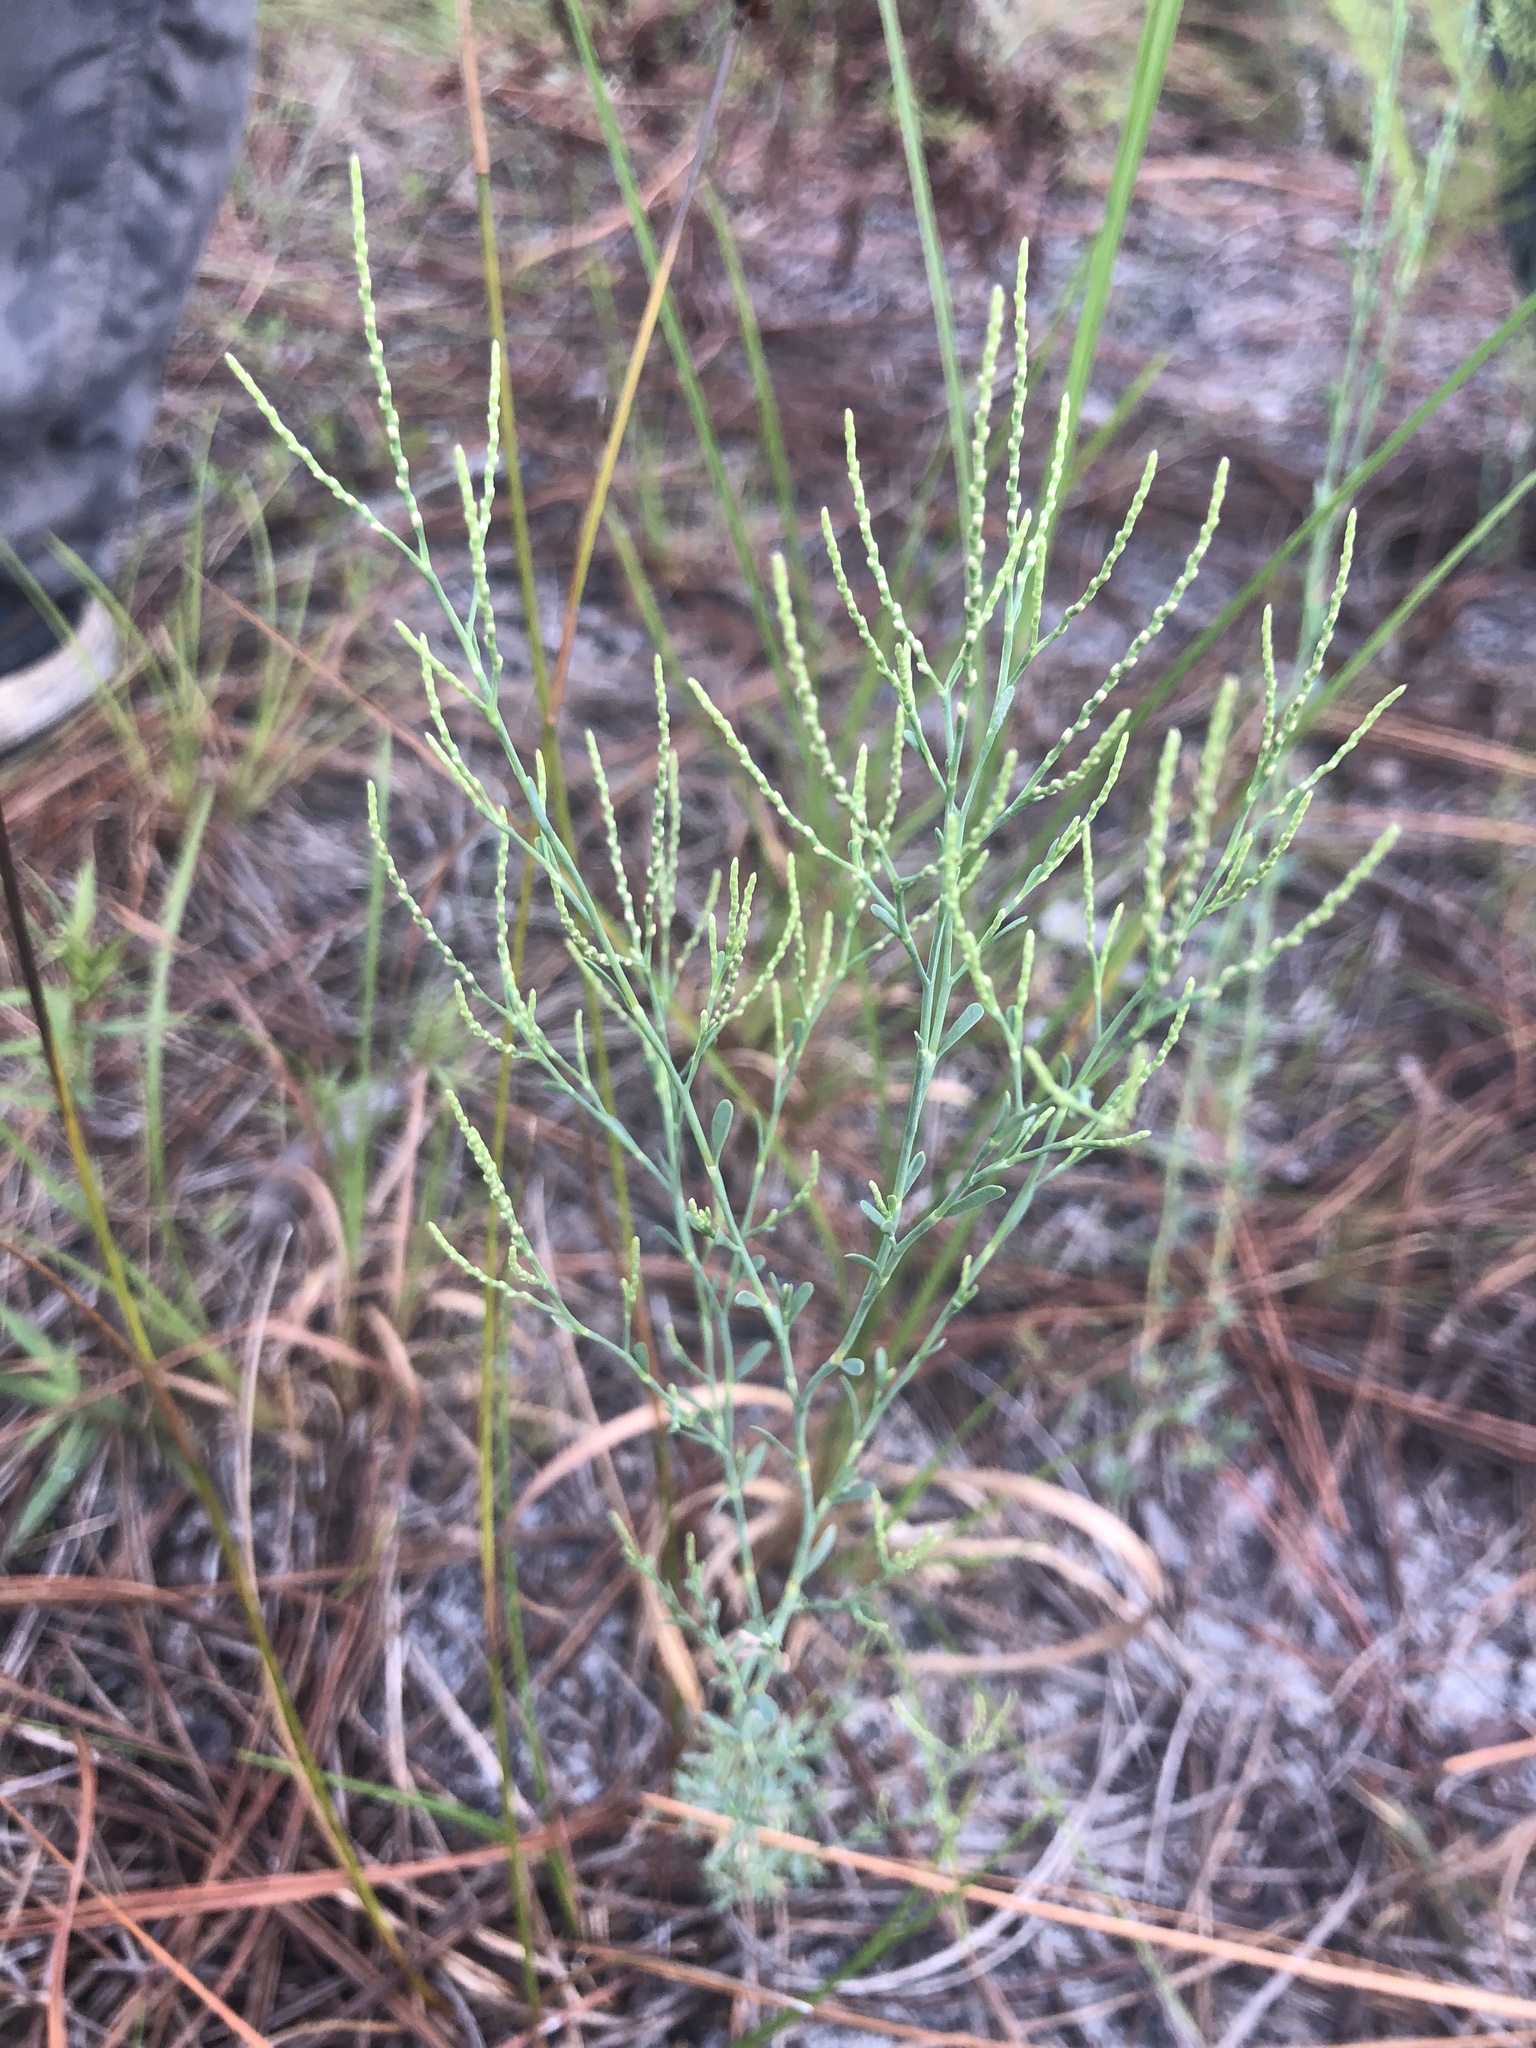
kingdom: Plantae
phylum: Tracheophyta
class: Magnoliopsida
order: Caryophyllales
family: Polygonaceae
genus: Polygonella
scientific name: Polygonella polygama
